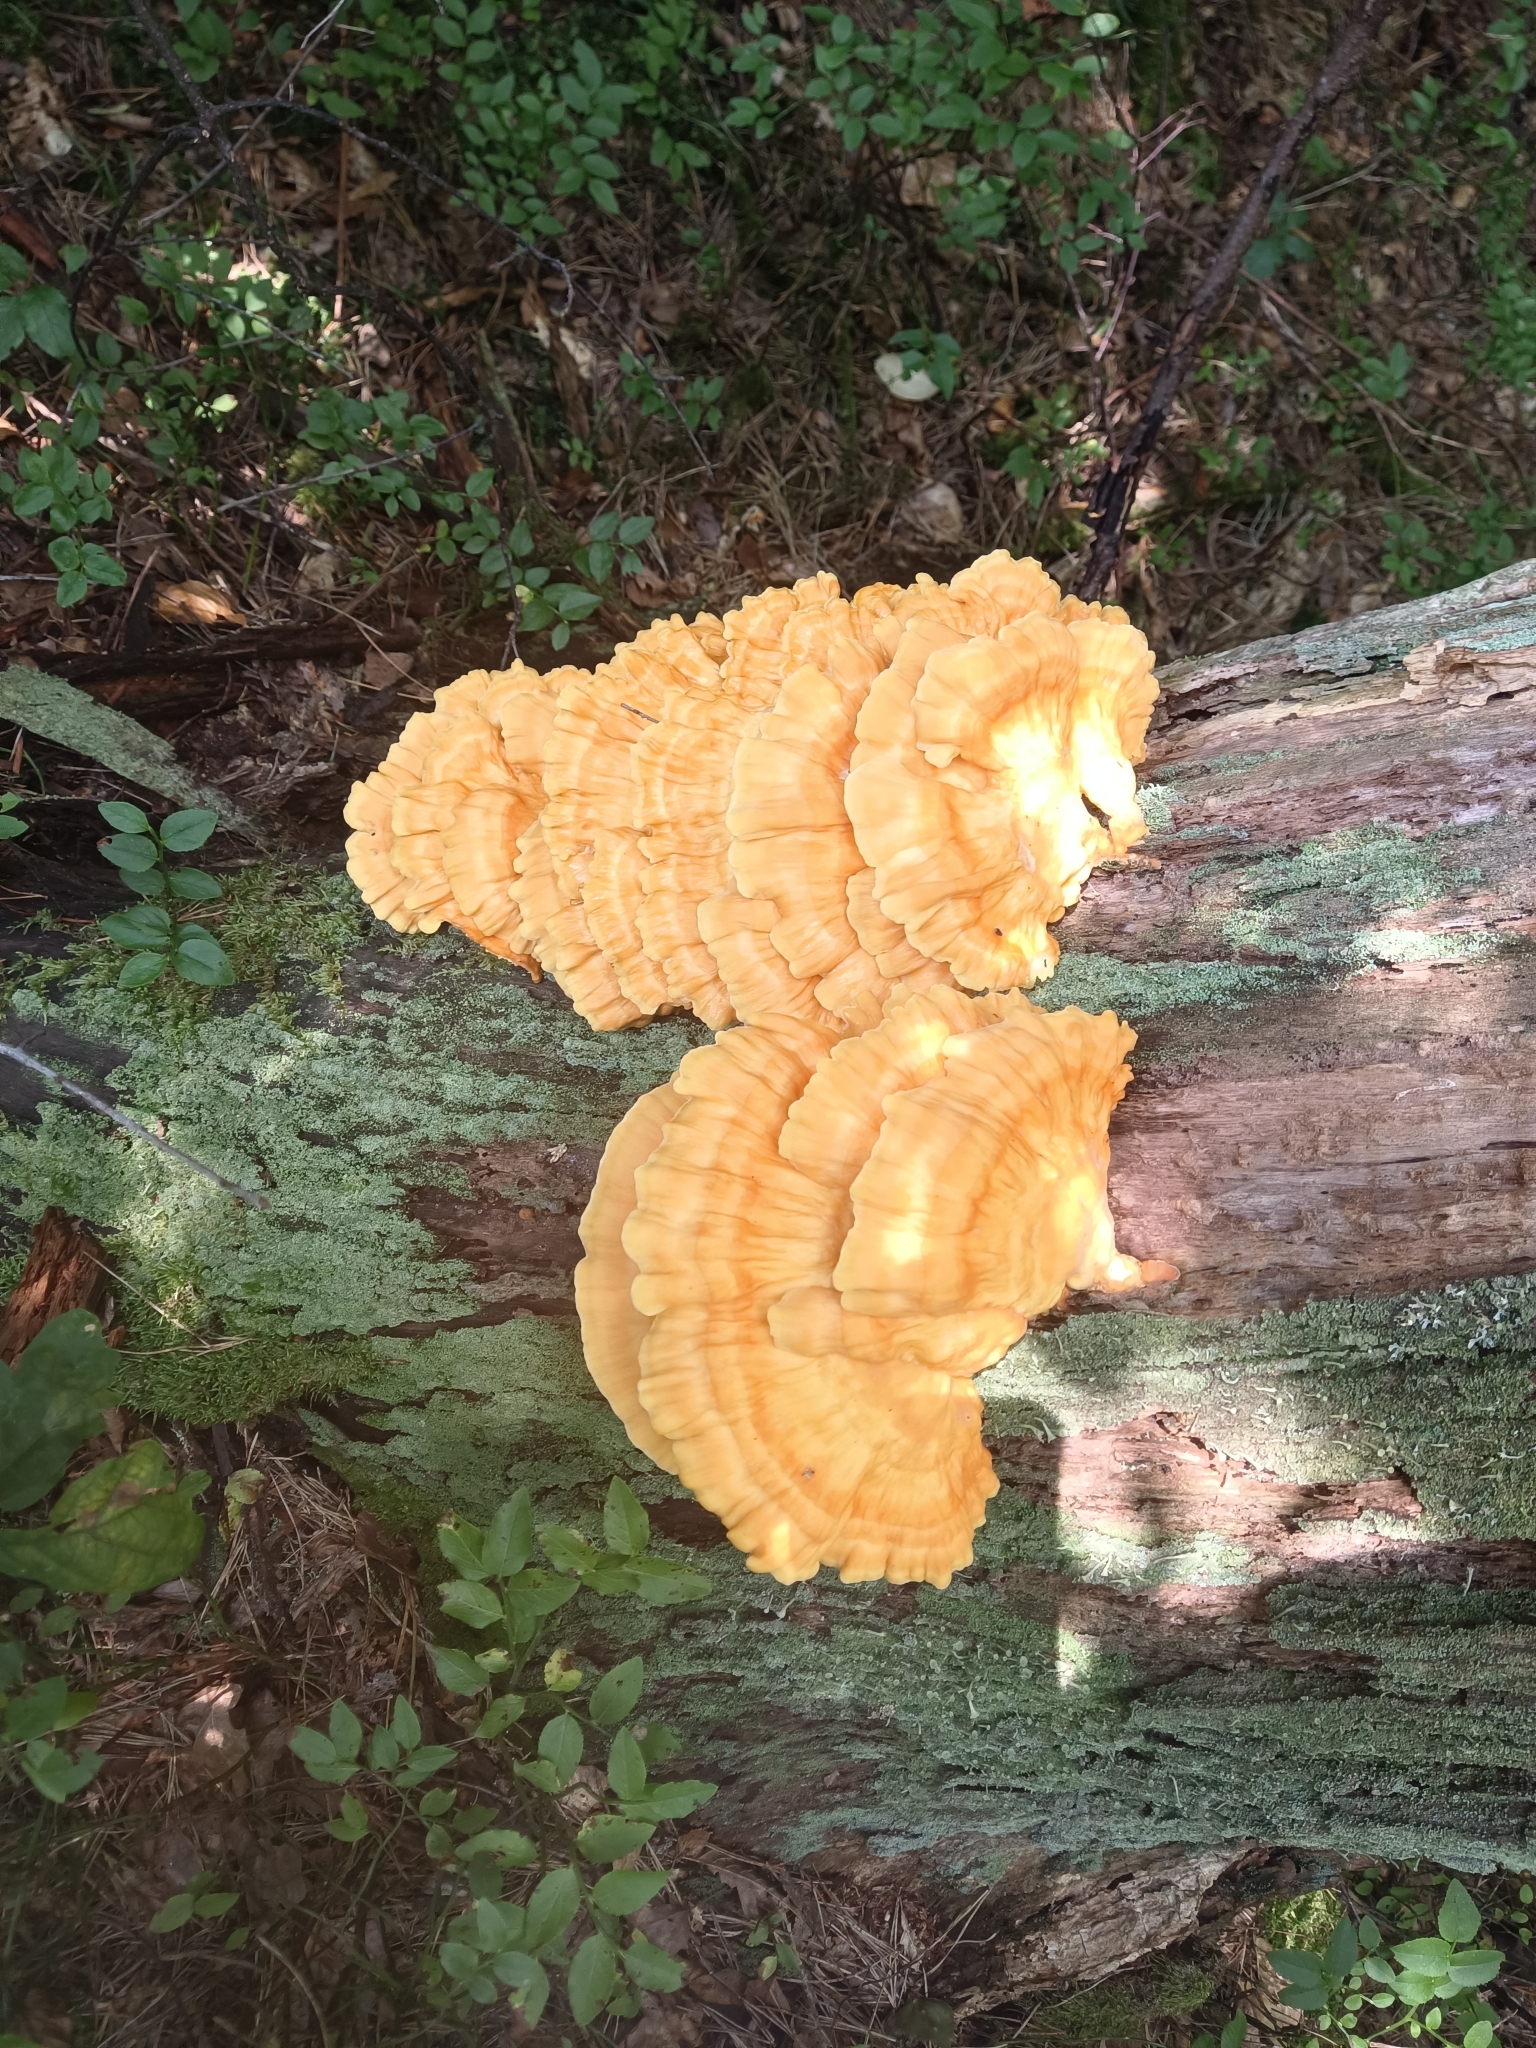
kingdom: Fungi
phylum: Basidiomycota
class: Agaricomycetes
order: Polyporales
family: Laetiporaceae
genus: Laetiporus
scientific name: Laetiporus sulphureus
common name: Chicken of the woods
